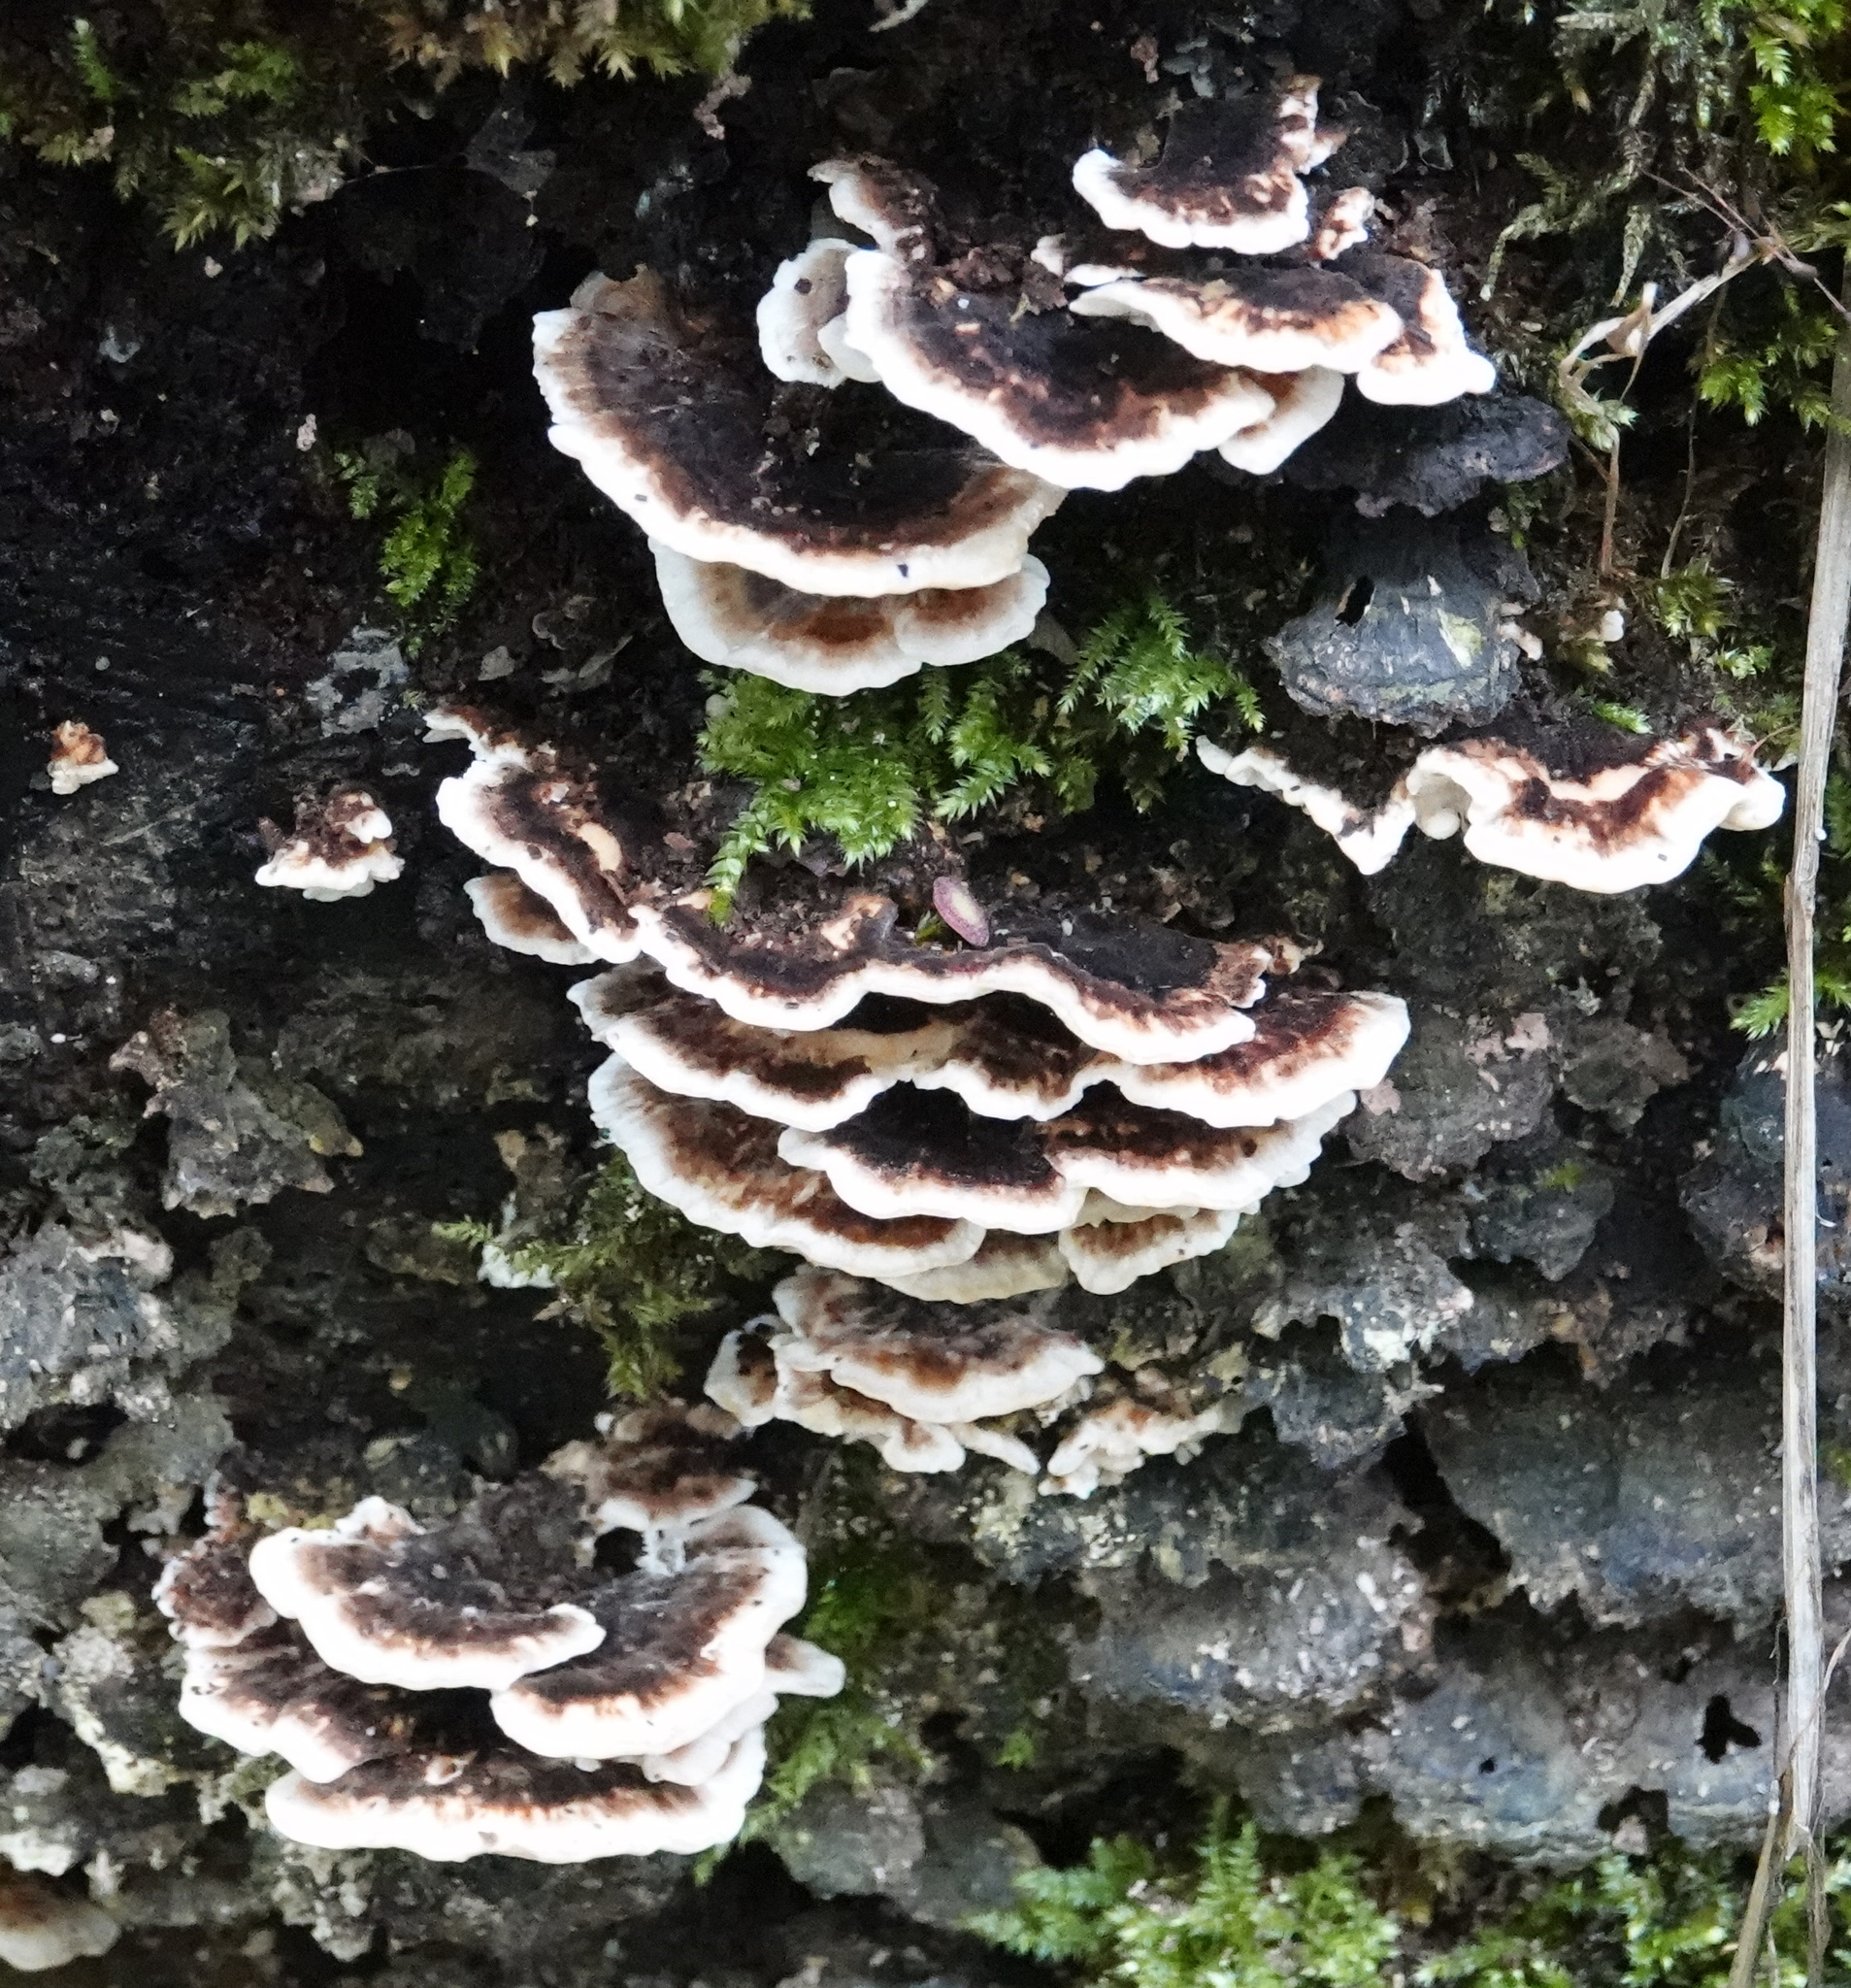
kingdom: Fungi
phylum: Basidiomycota
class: Agaricomycetes
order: Polyporales
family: Polyporaceae
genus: Trametes
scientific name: Trametes versicolor
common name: Turkeytail
